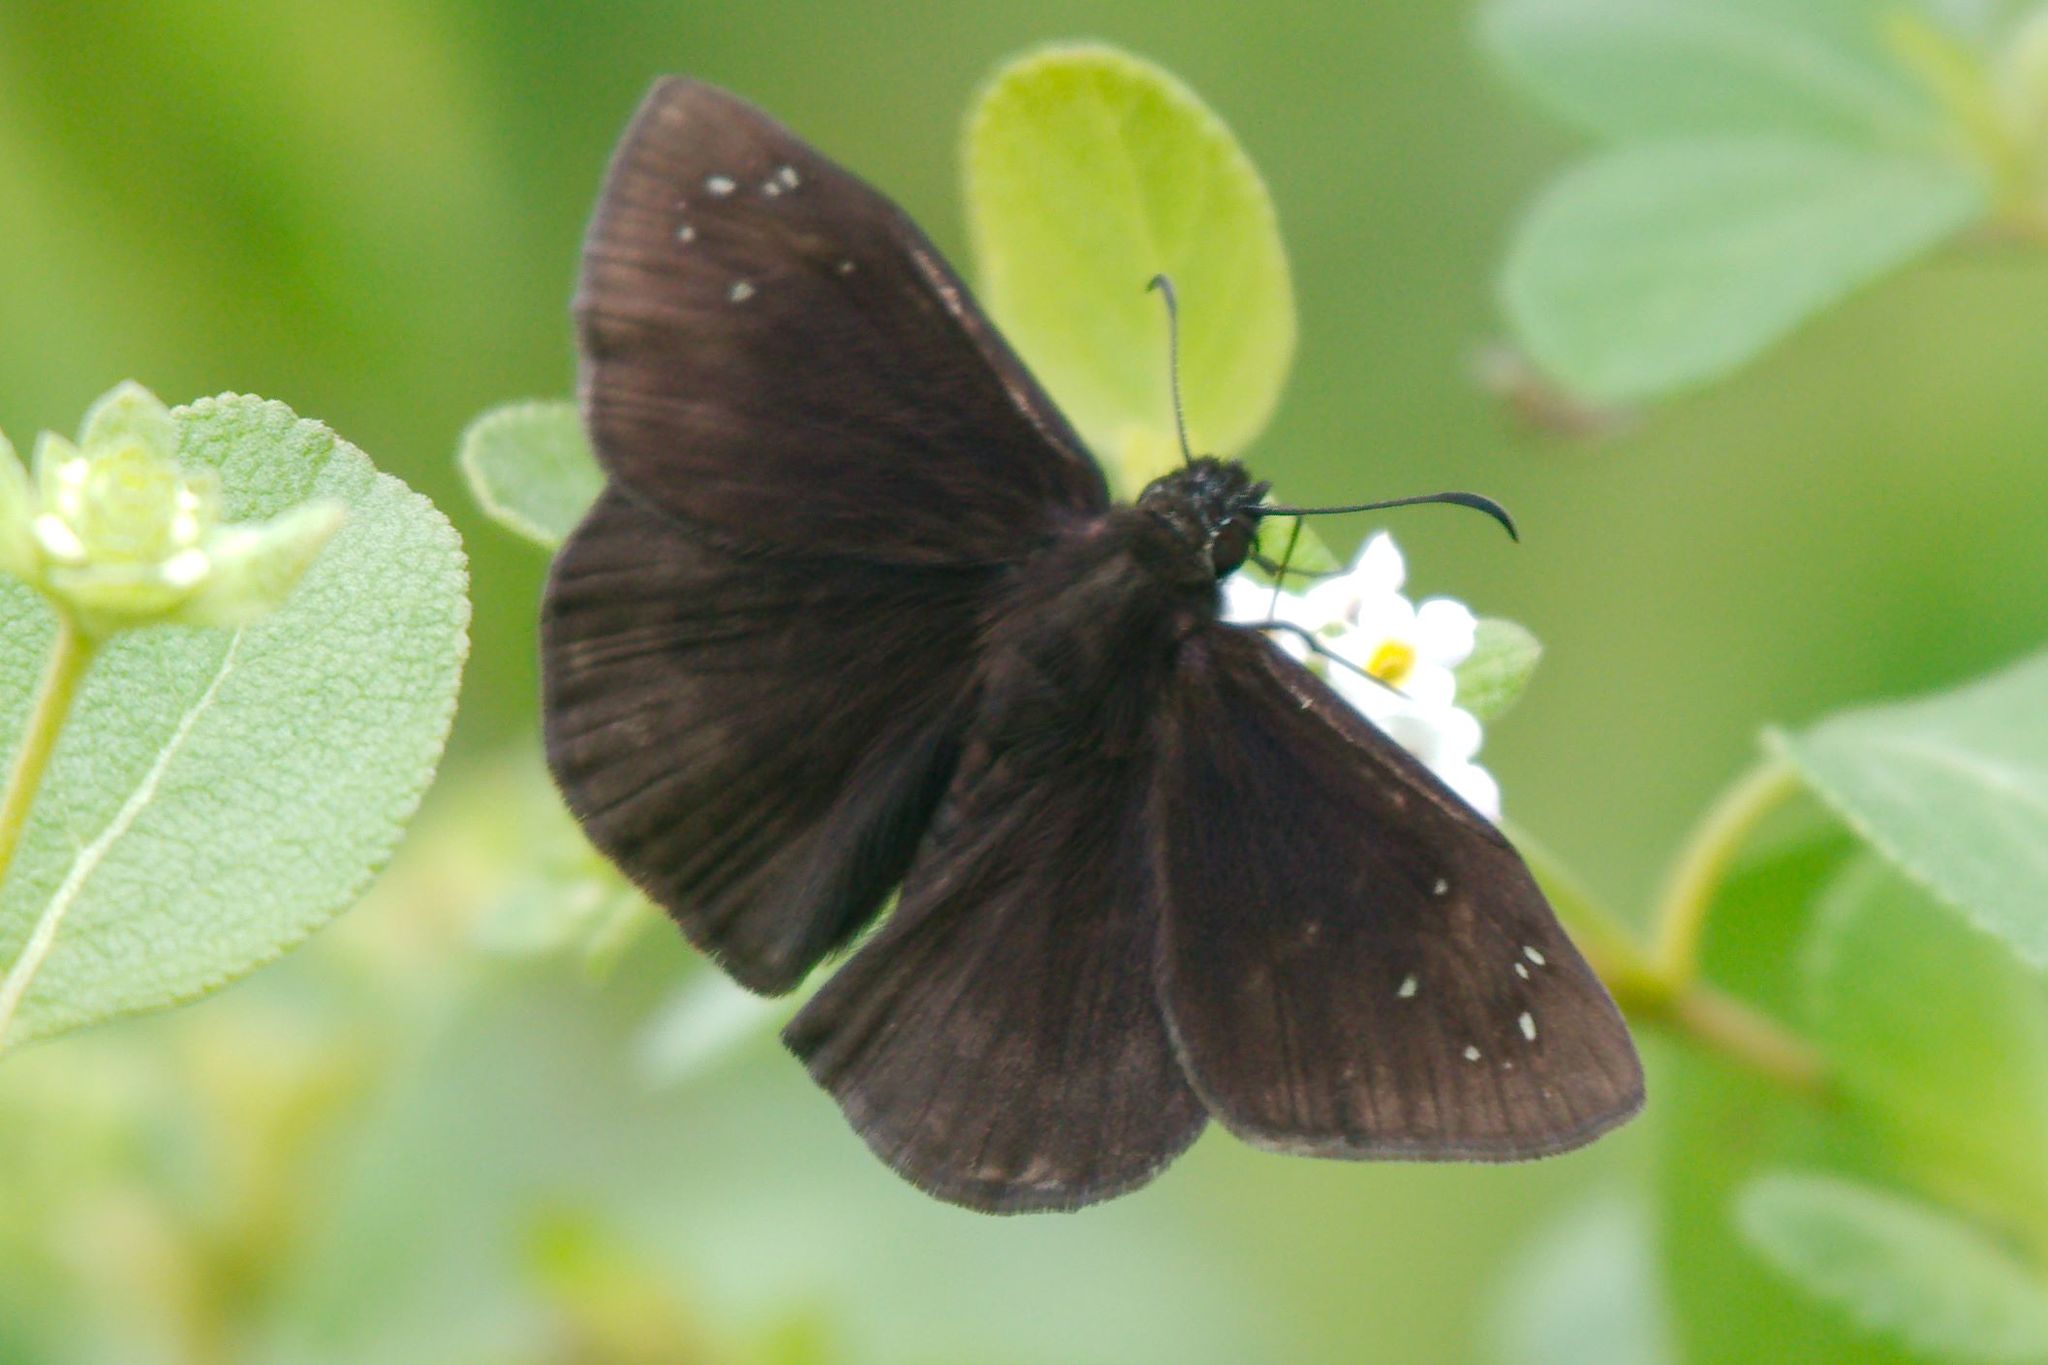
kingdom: Animalia
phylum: Arthropoda
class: Insecta
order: Lepidoptera
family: Hesperiidae
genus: Ephyriades
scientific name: Ephyriades brunnea
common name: Florida duskywing
